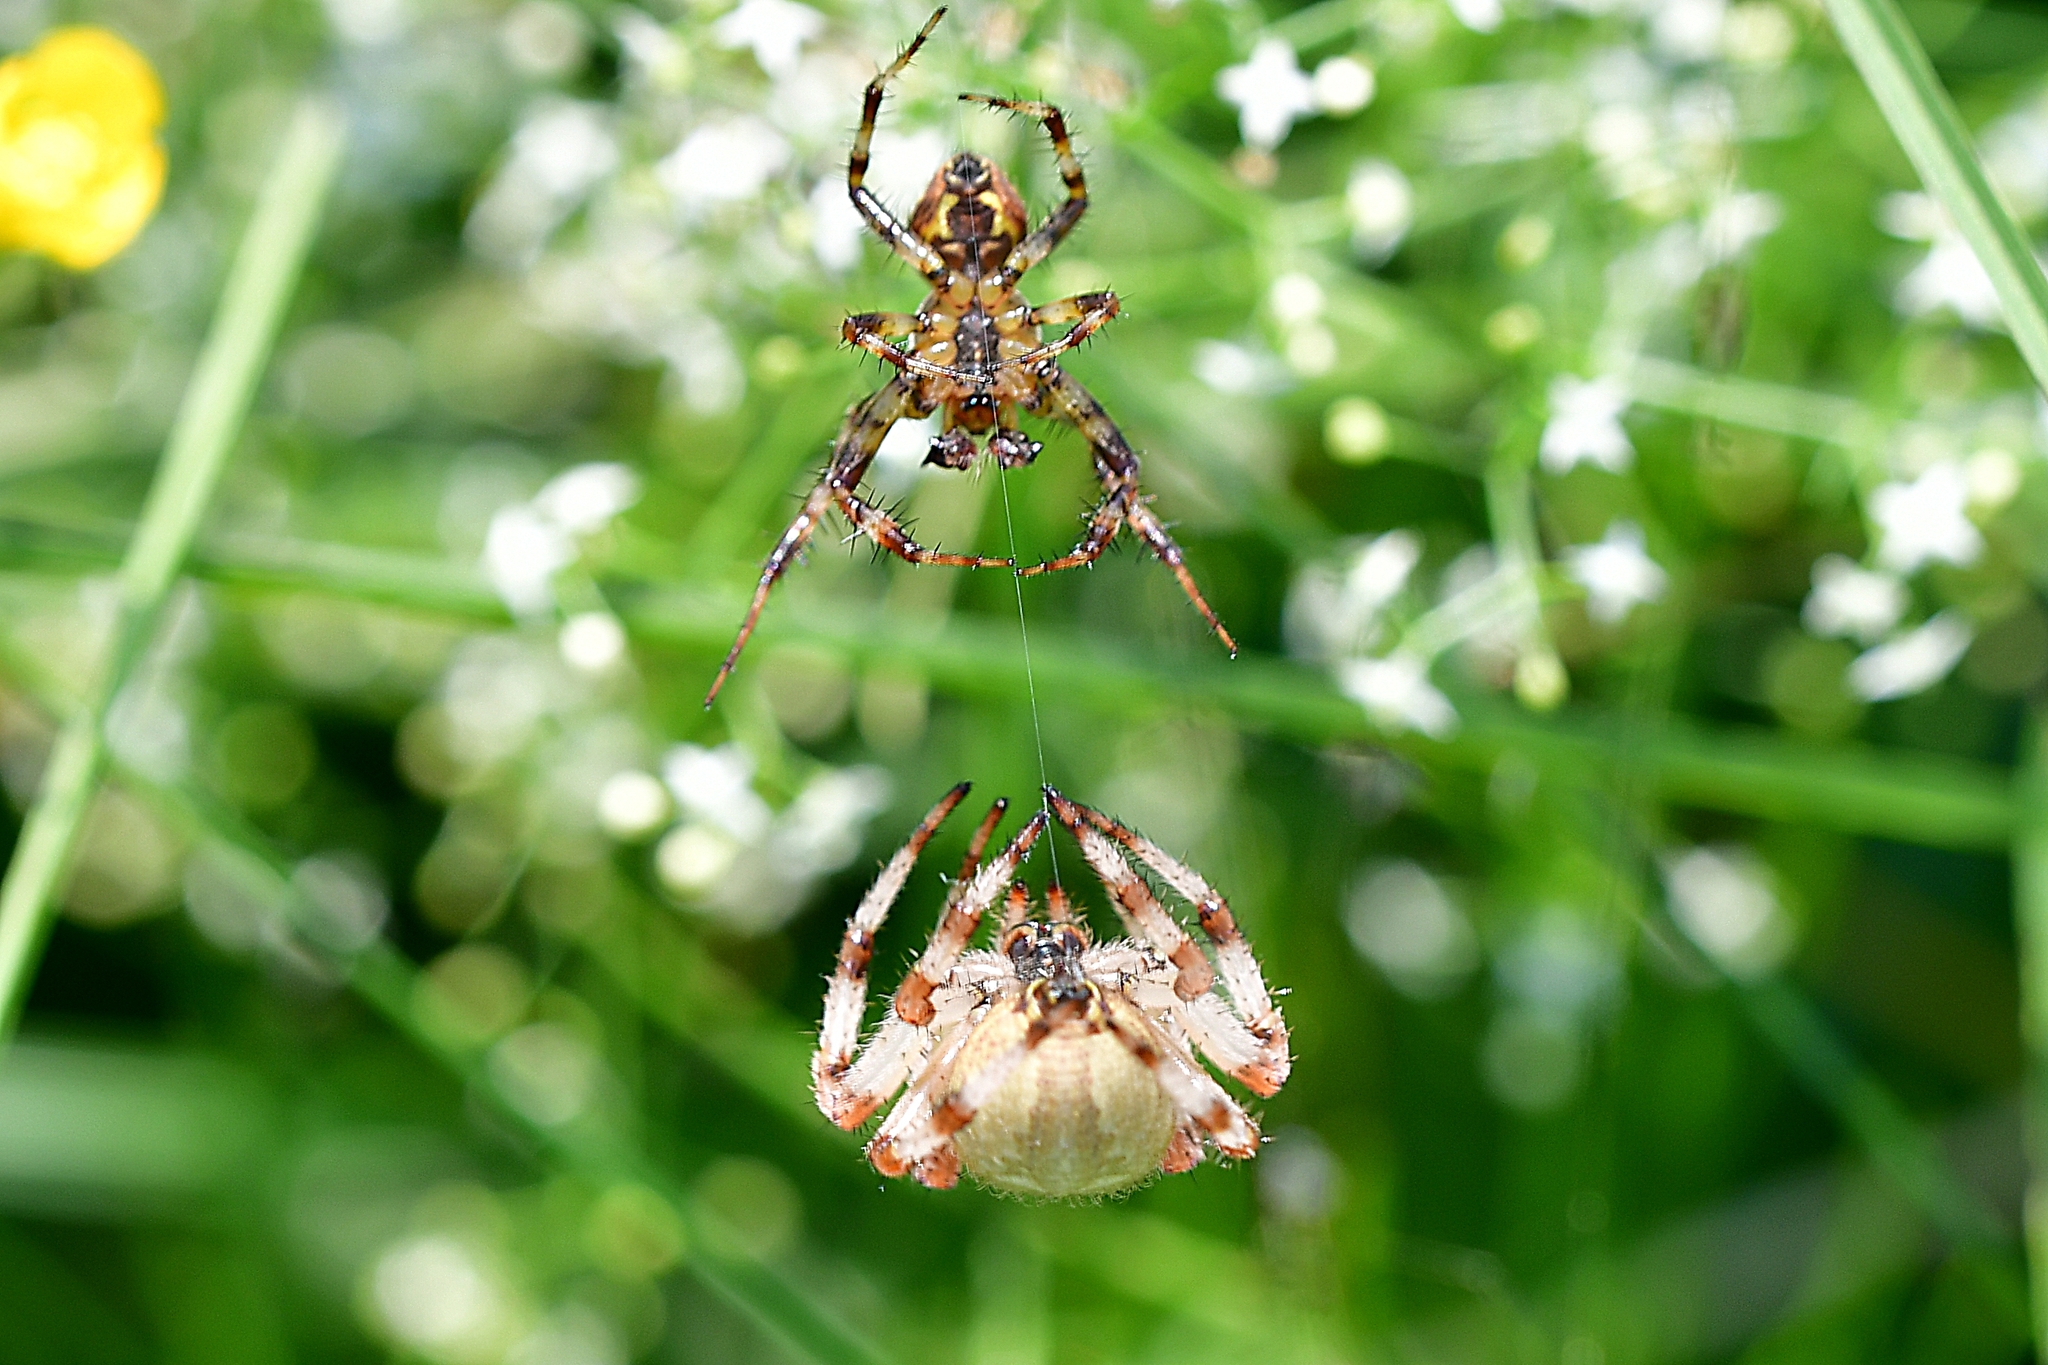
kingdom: Animalia
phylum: Arthropoda
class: Arachnida
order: Araneae
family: Araneidae
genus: Araneus
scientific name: Araneus quadratus
